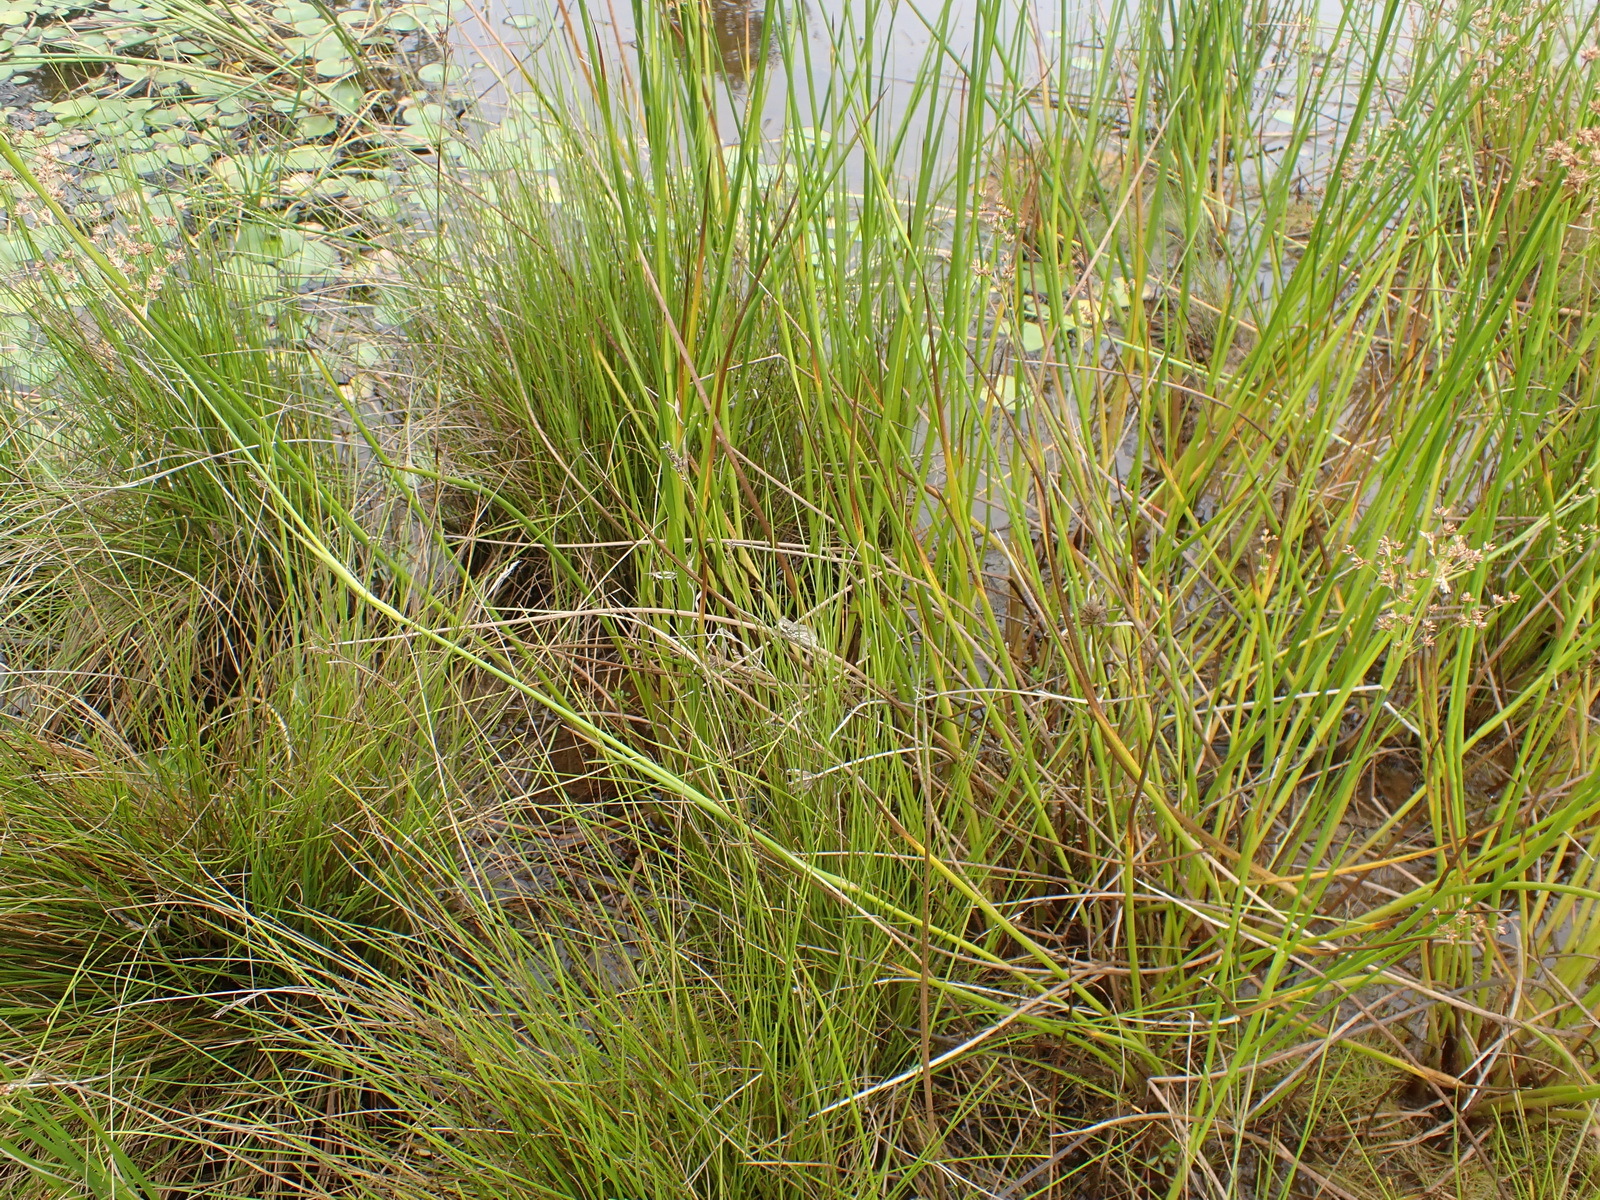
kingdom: Animalia
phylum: Chordata
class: Amphibia
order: Anura
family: Hyperoliidae
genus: Hyperolius
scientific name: Hyperolius marmoratus
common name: Painted reed frog
